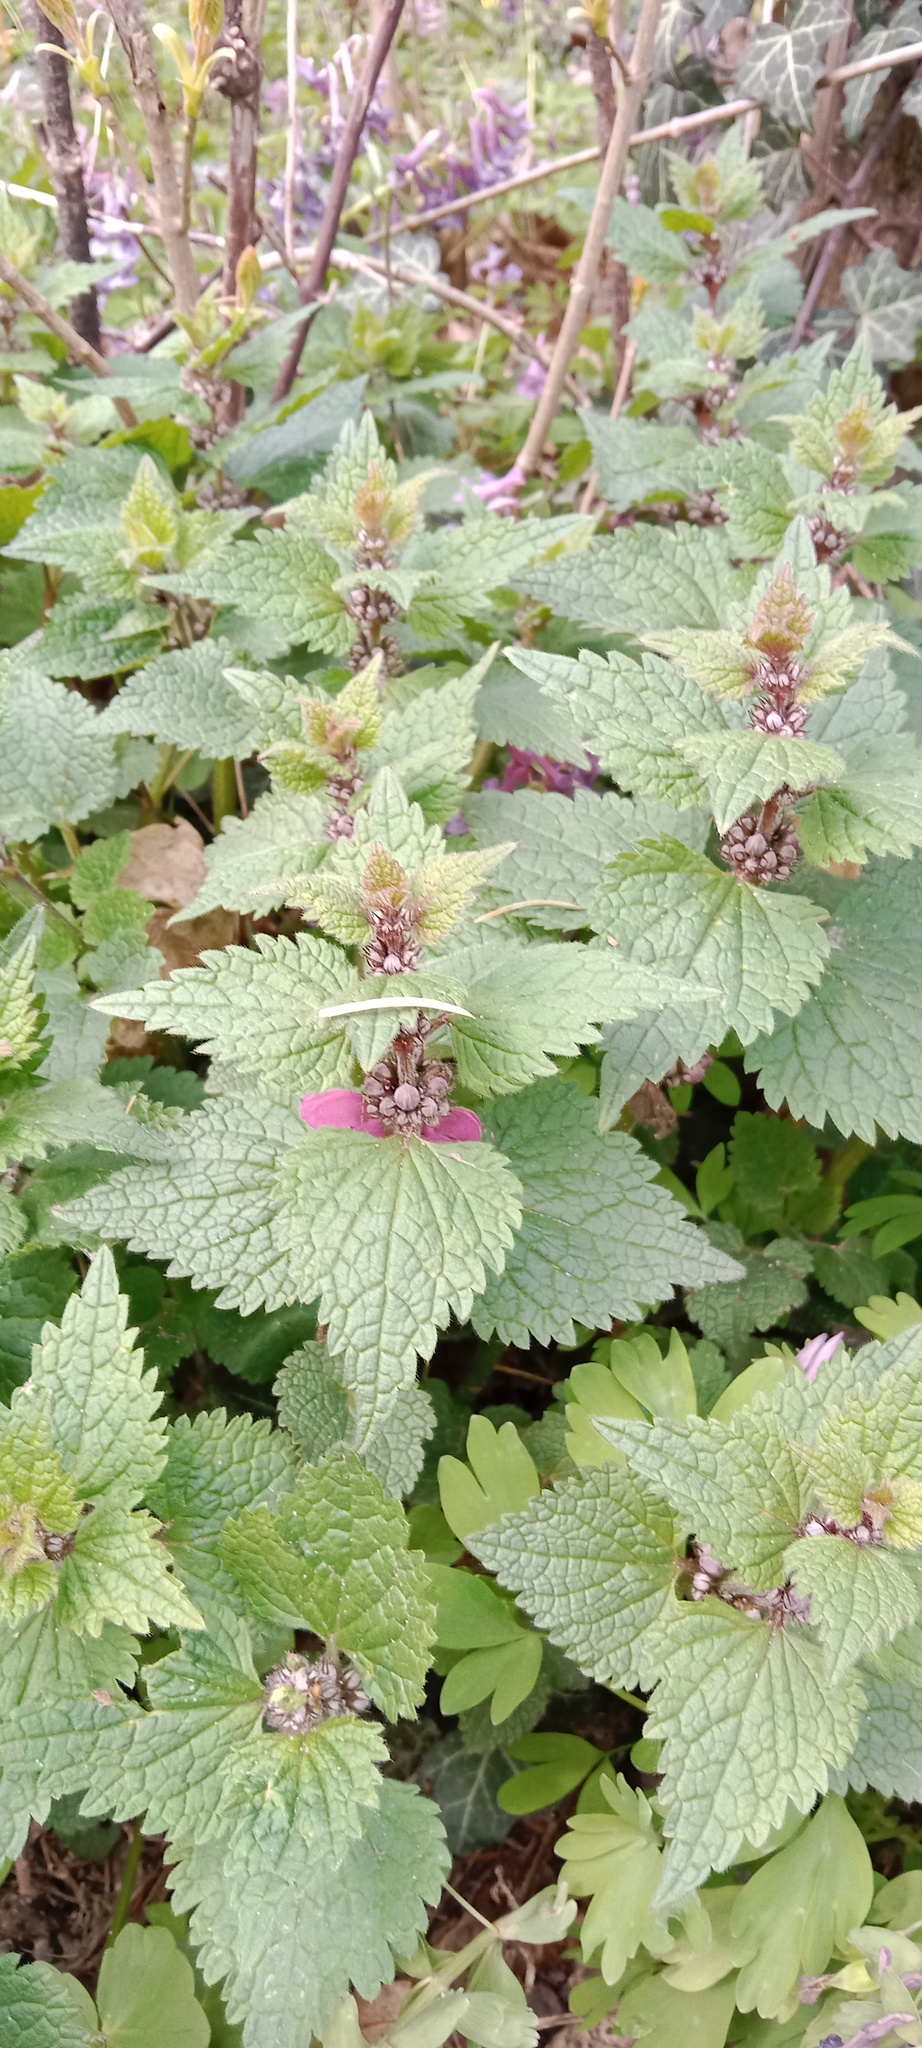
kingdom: Plantae
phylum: Tracheophyta
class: Magnoliopsida
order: Lamiales
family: Lamiaceae
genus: Lamium
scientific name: Lamium maculatum
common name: Spotted dead-nettle
